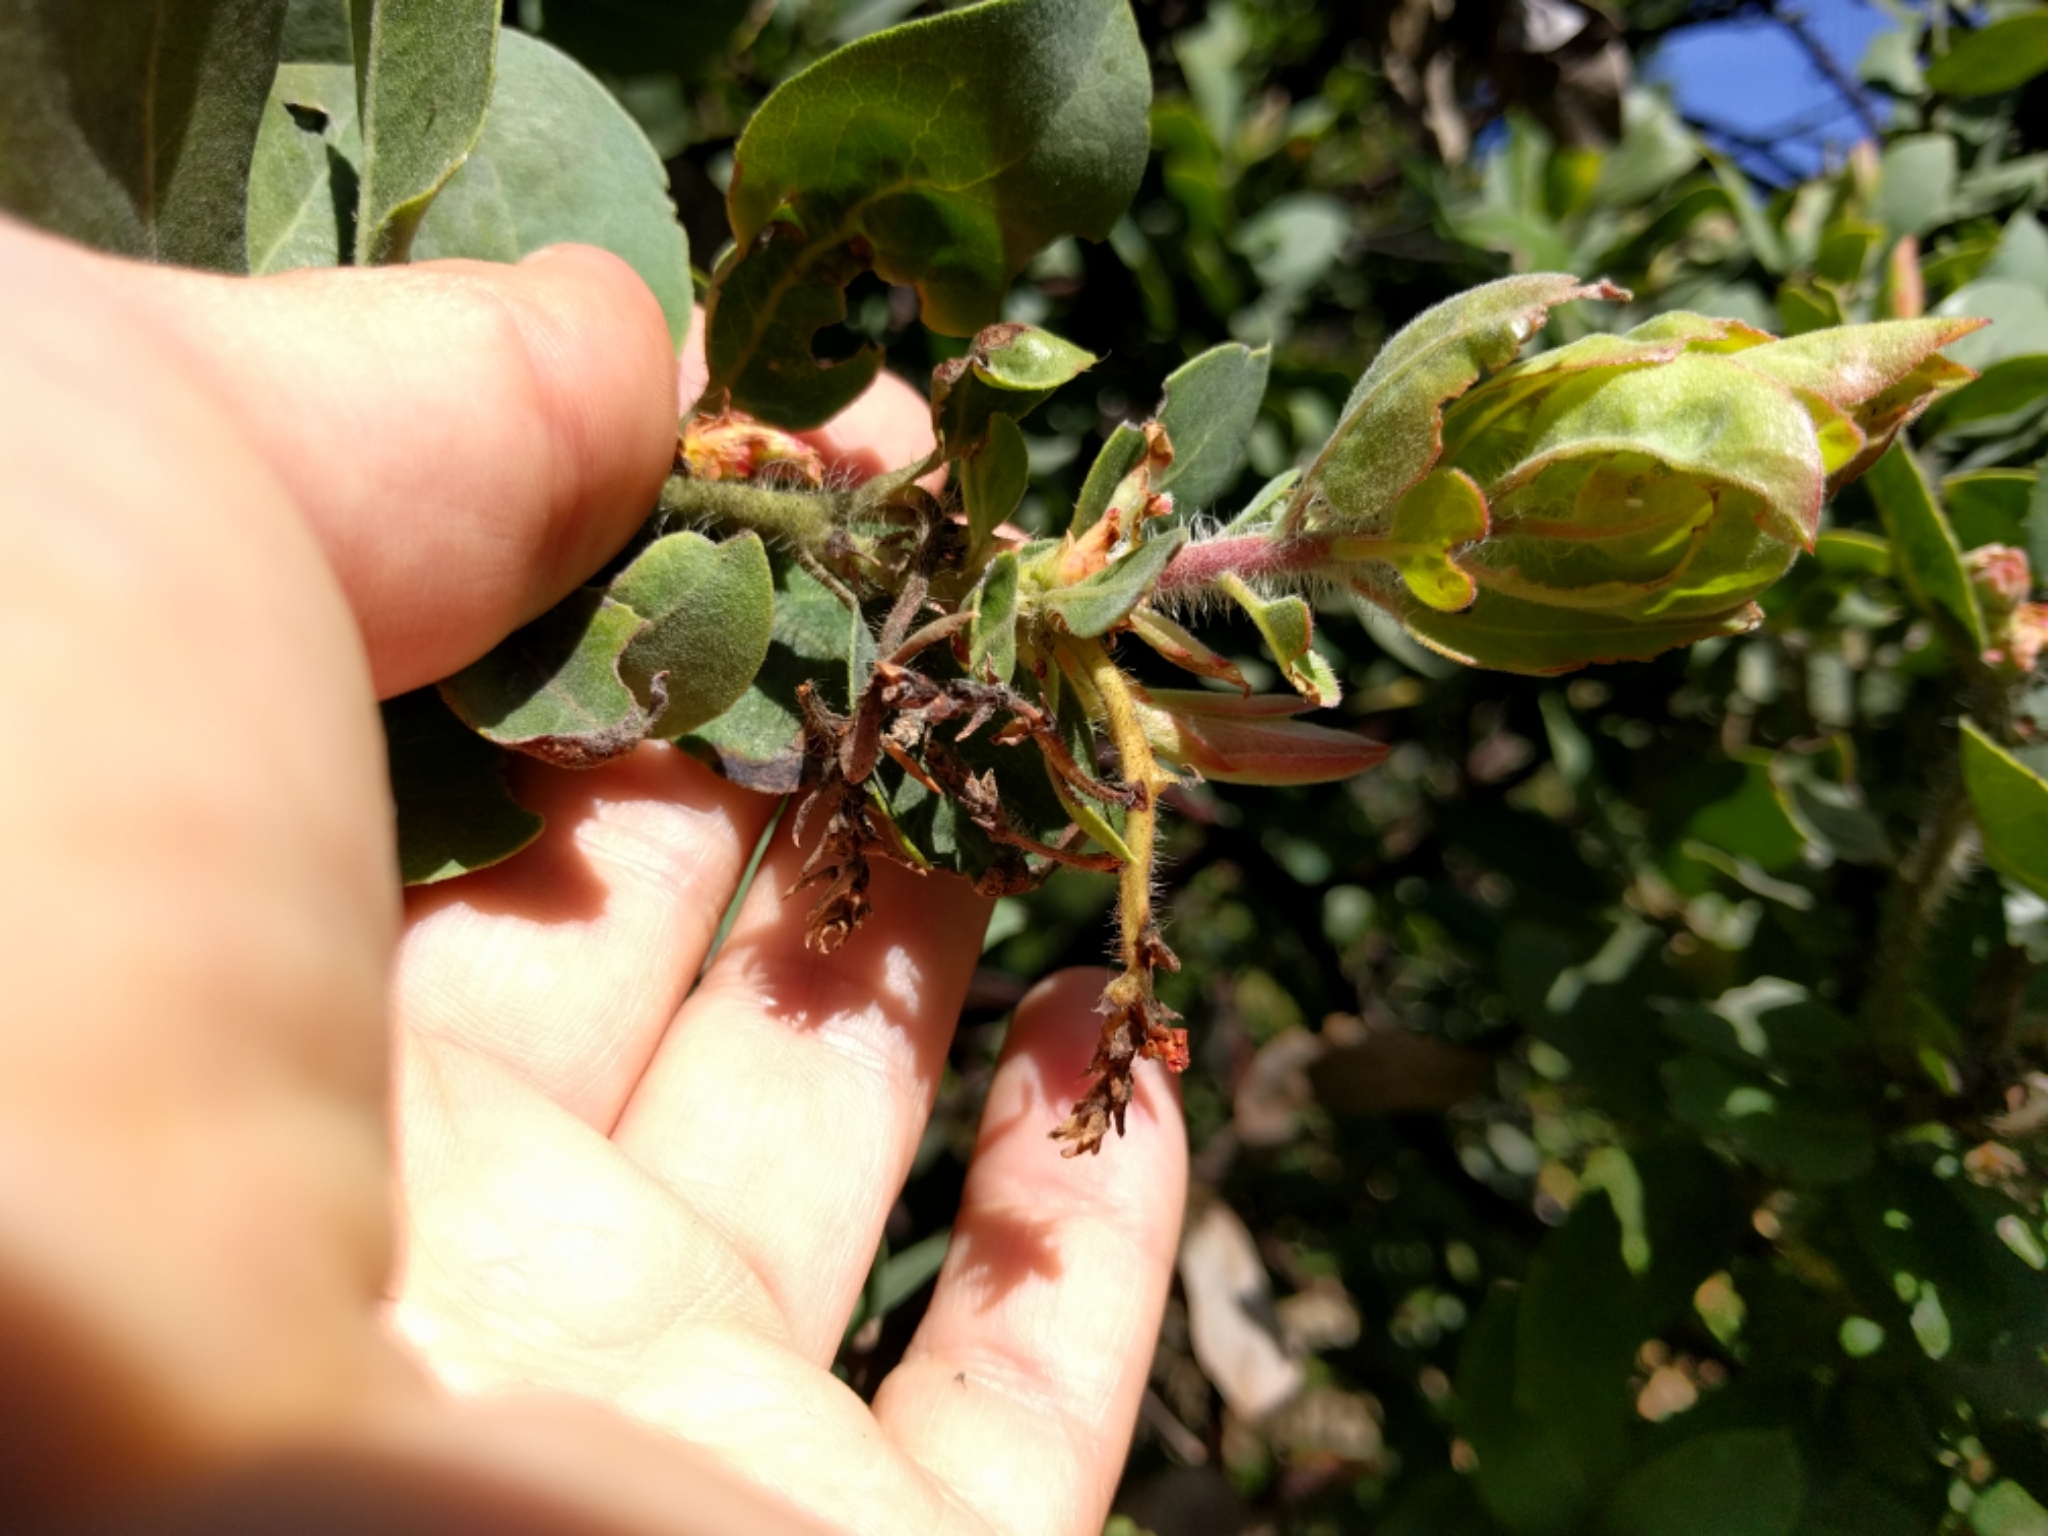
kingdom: Plantae
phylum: Tracheophyta
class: Magnoliopsida
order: Ericales
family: Ericaceae
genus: Arctostaphylos
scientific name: Arctostaphylos crustacea
